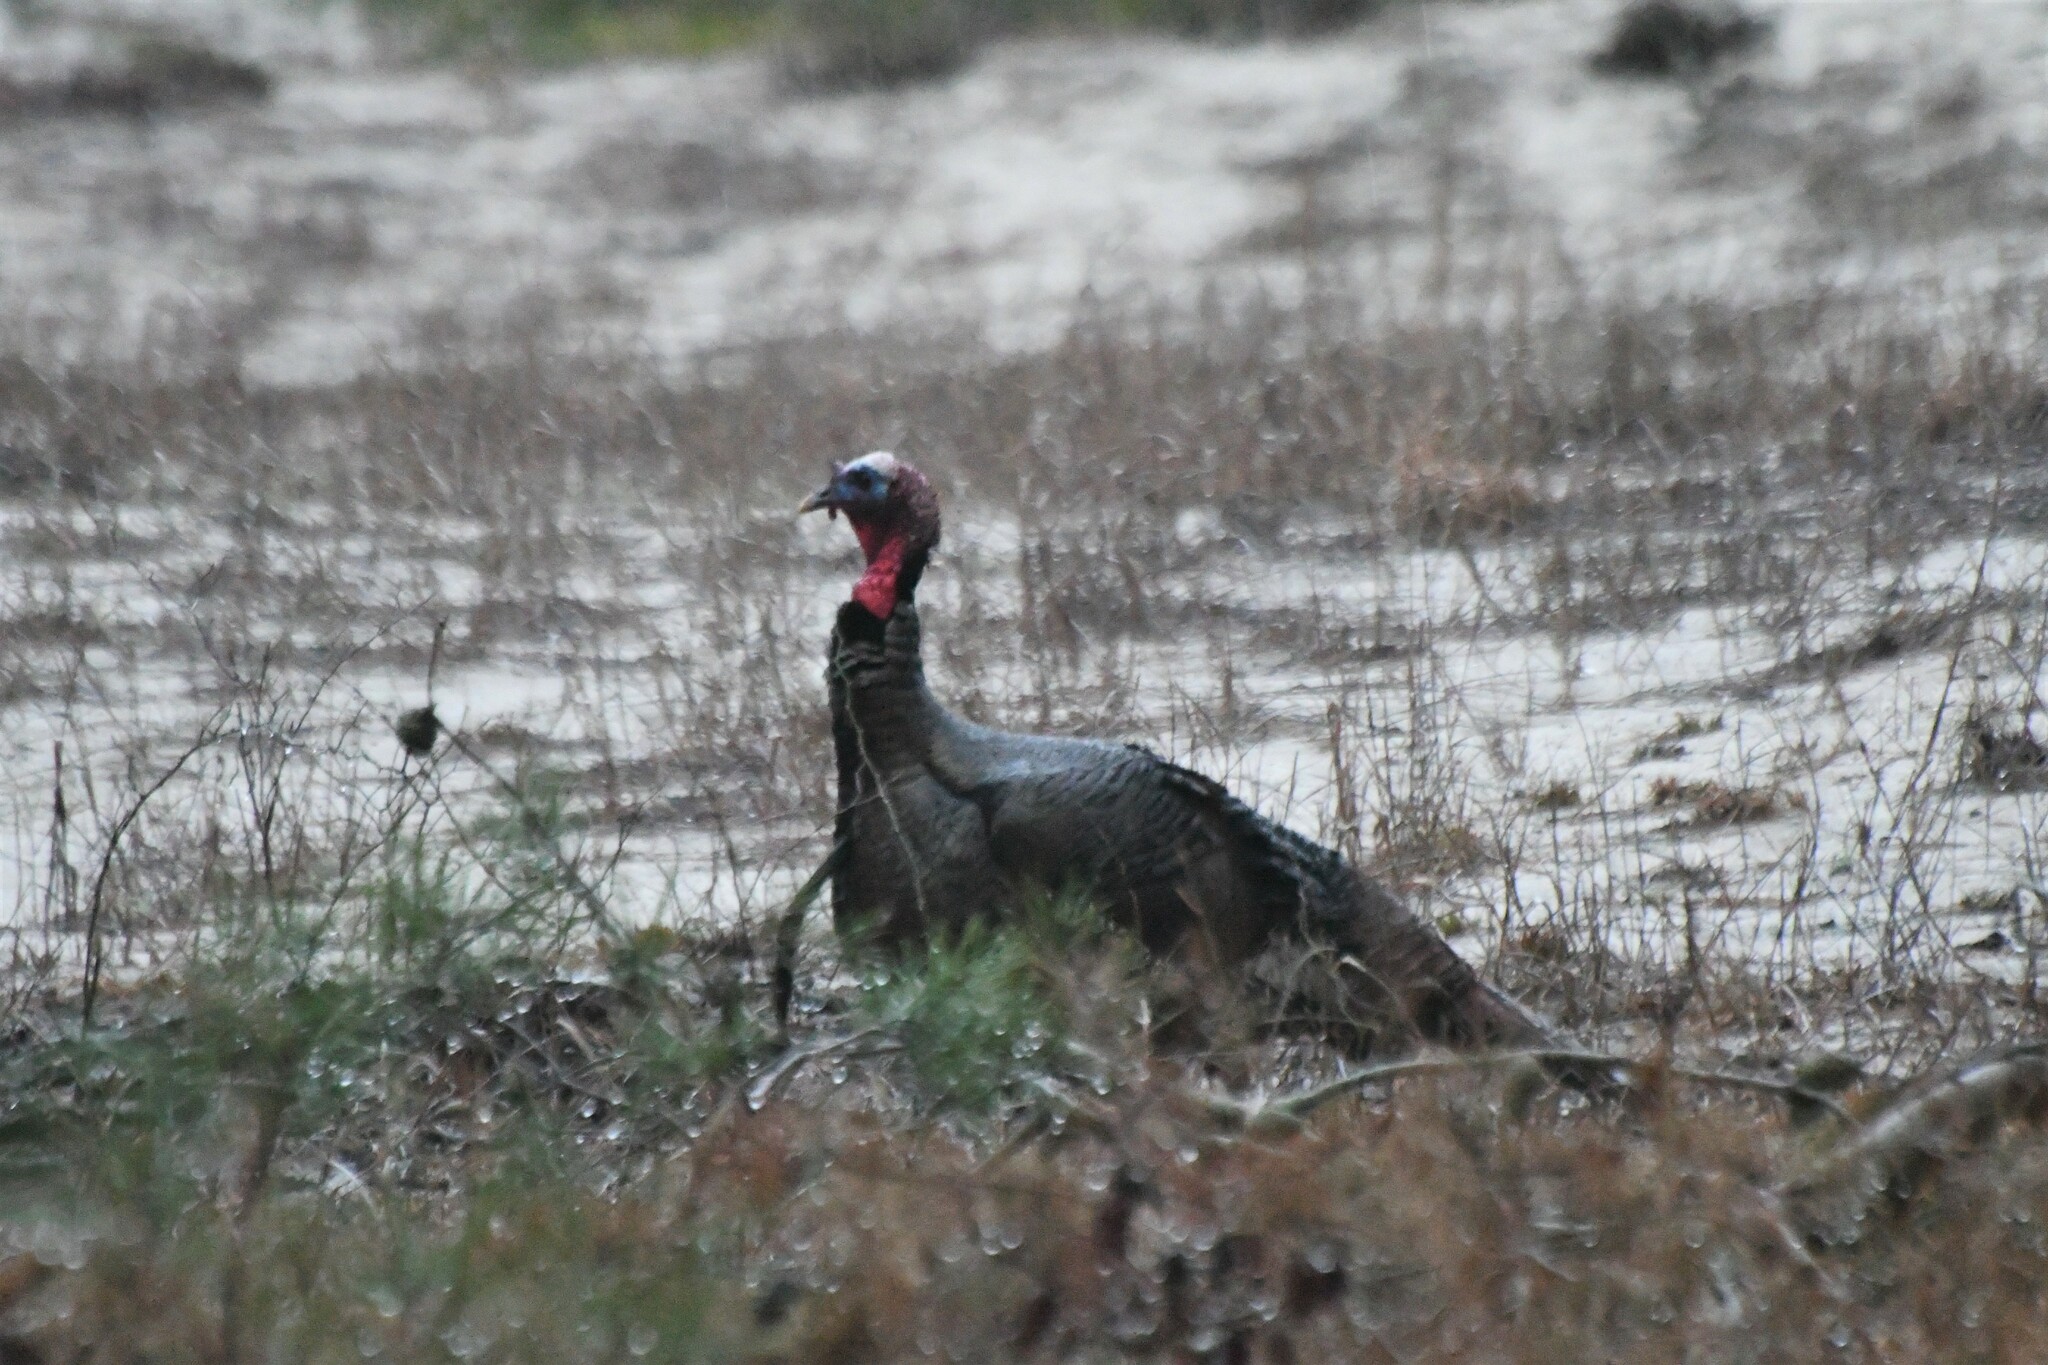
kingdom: Animalia
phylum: Chordata
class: Aves
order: Galliformes
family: Phasianidae
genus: Meleagris
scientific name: Meleagris gallopavo
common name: Wild turkey
